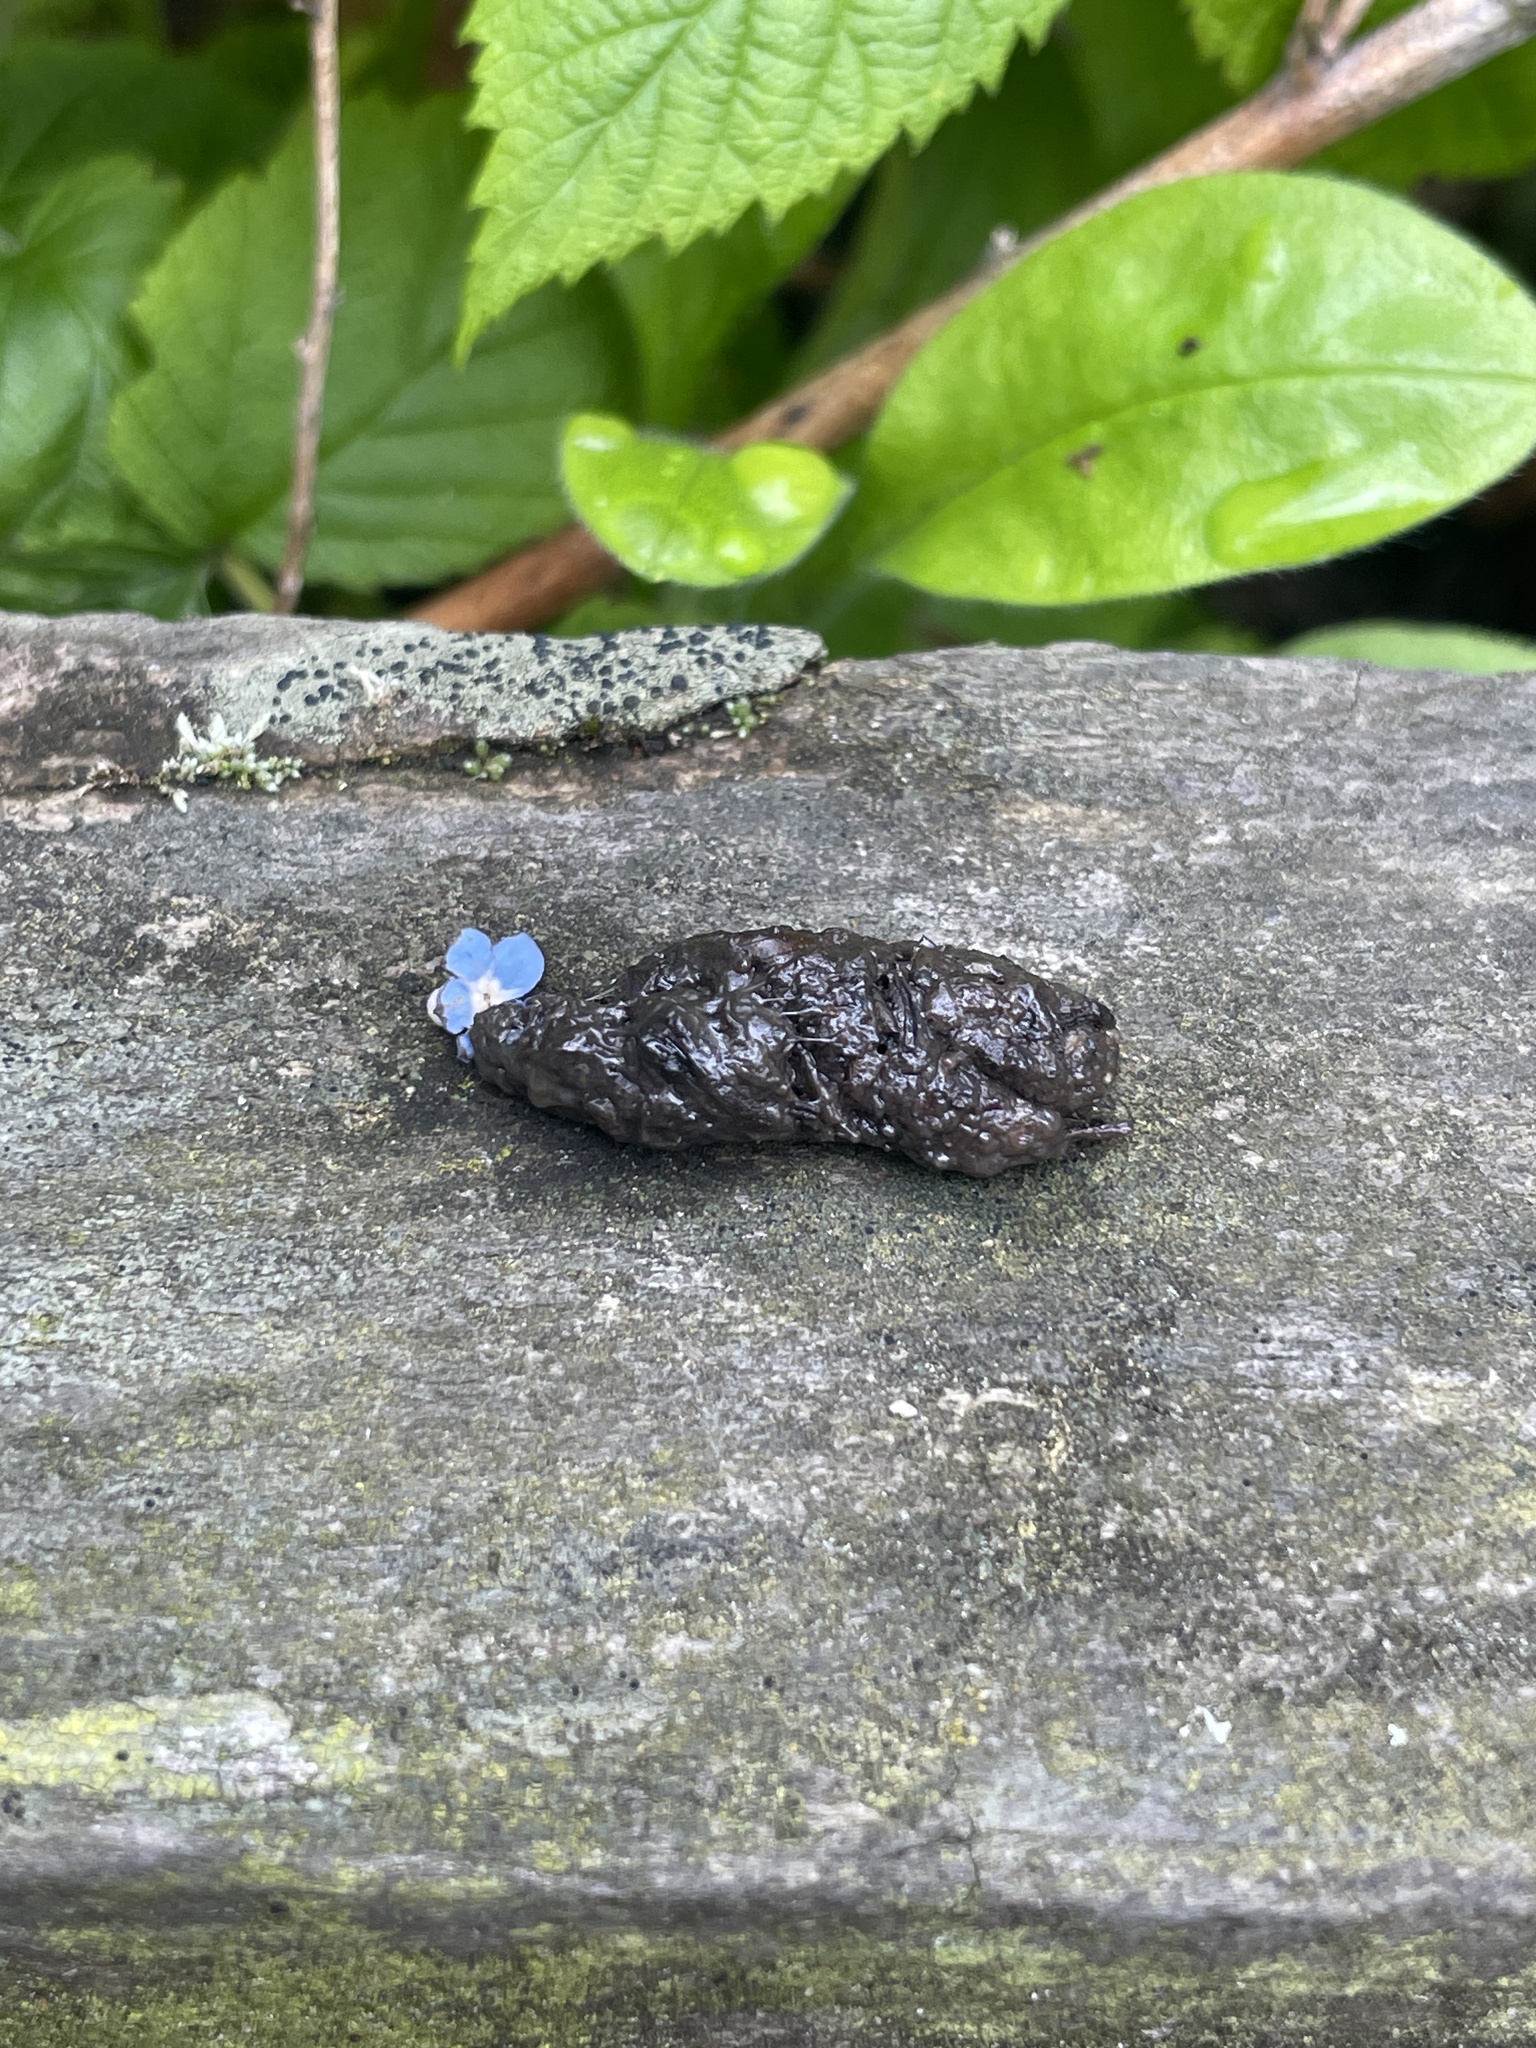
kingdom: Animalia
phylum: Chordata
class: Mammalia
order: Erinaceomorpha
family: Erinaceidae
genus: Erinaceus
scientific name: Erinaceus europaeus
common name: West european hedgehog
